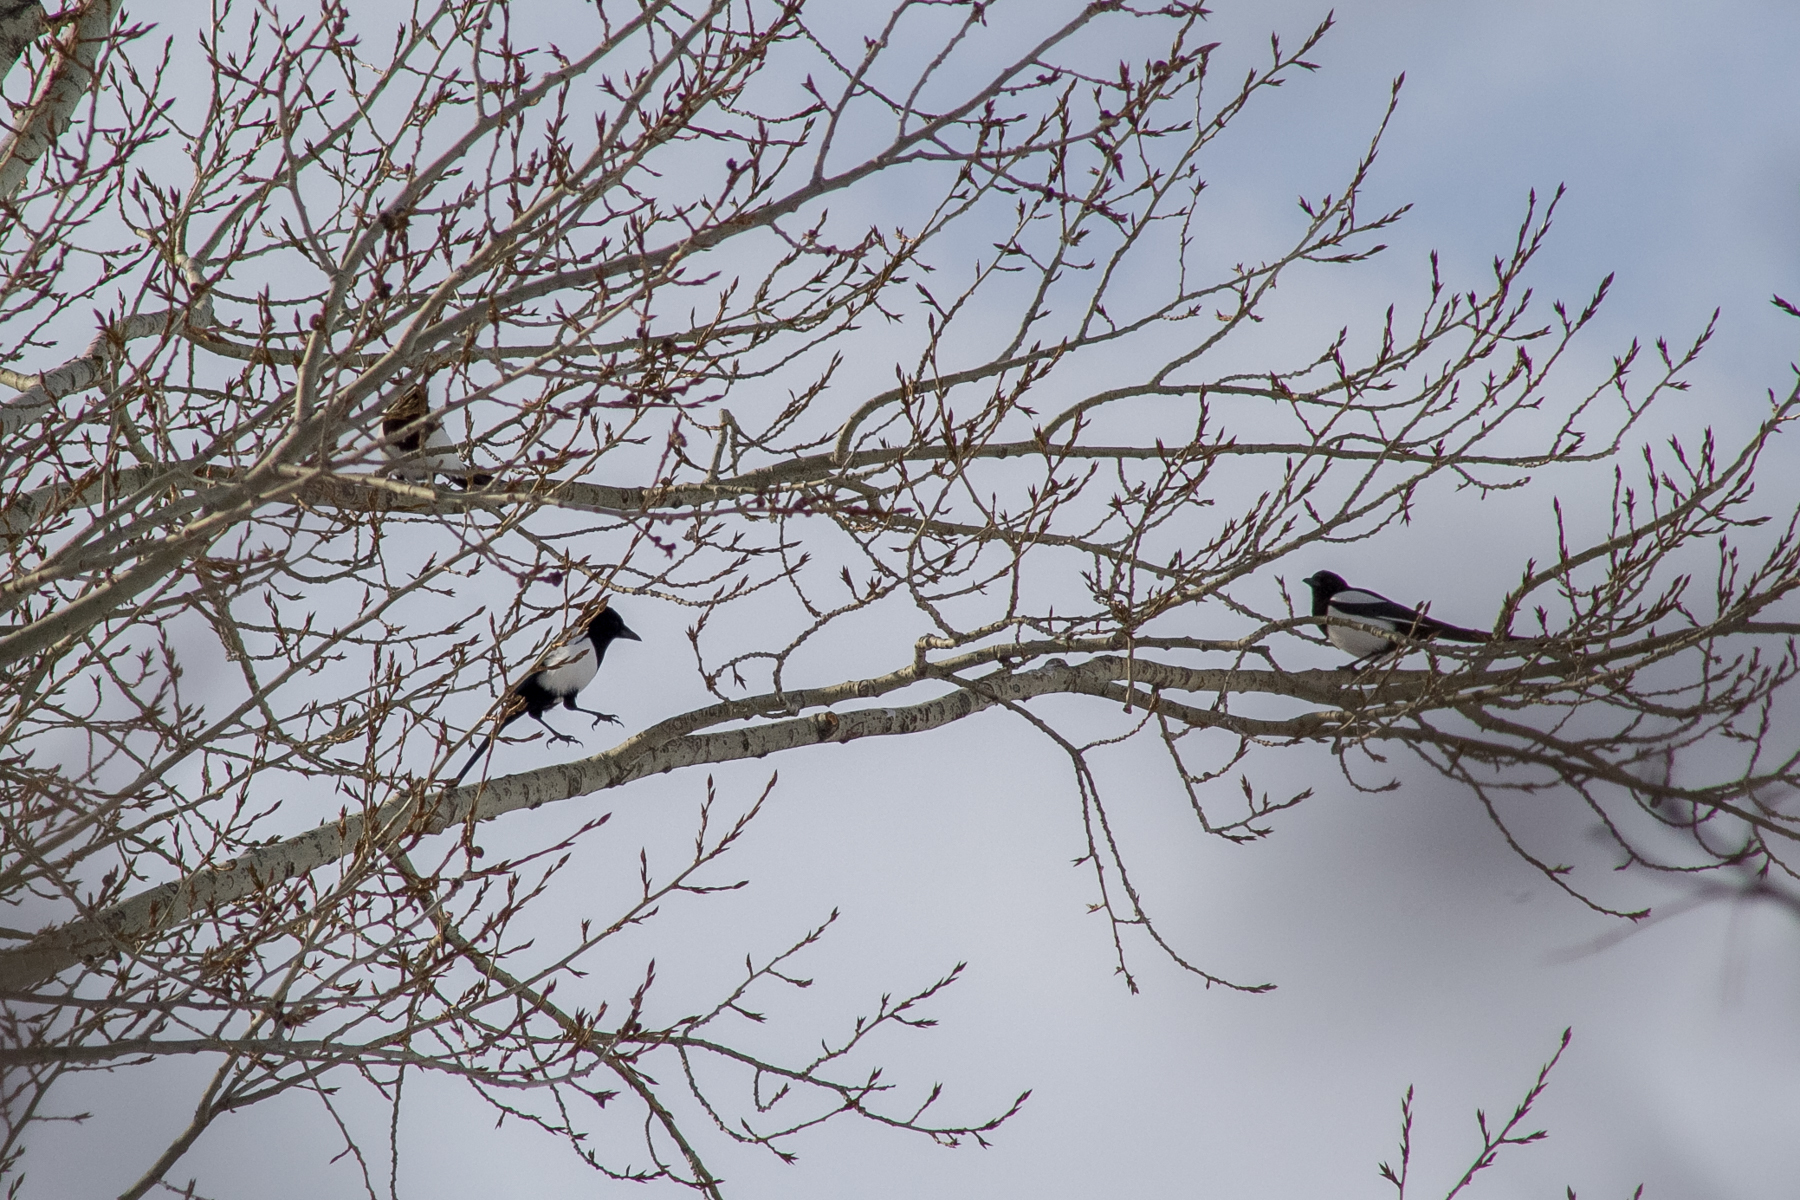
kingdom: Animalia
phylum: Chordata
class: Aves
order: Passeriformes
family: Corvidae
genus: Pica
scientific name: Pica pica
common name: Eurasian magpie
